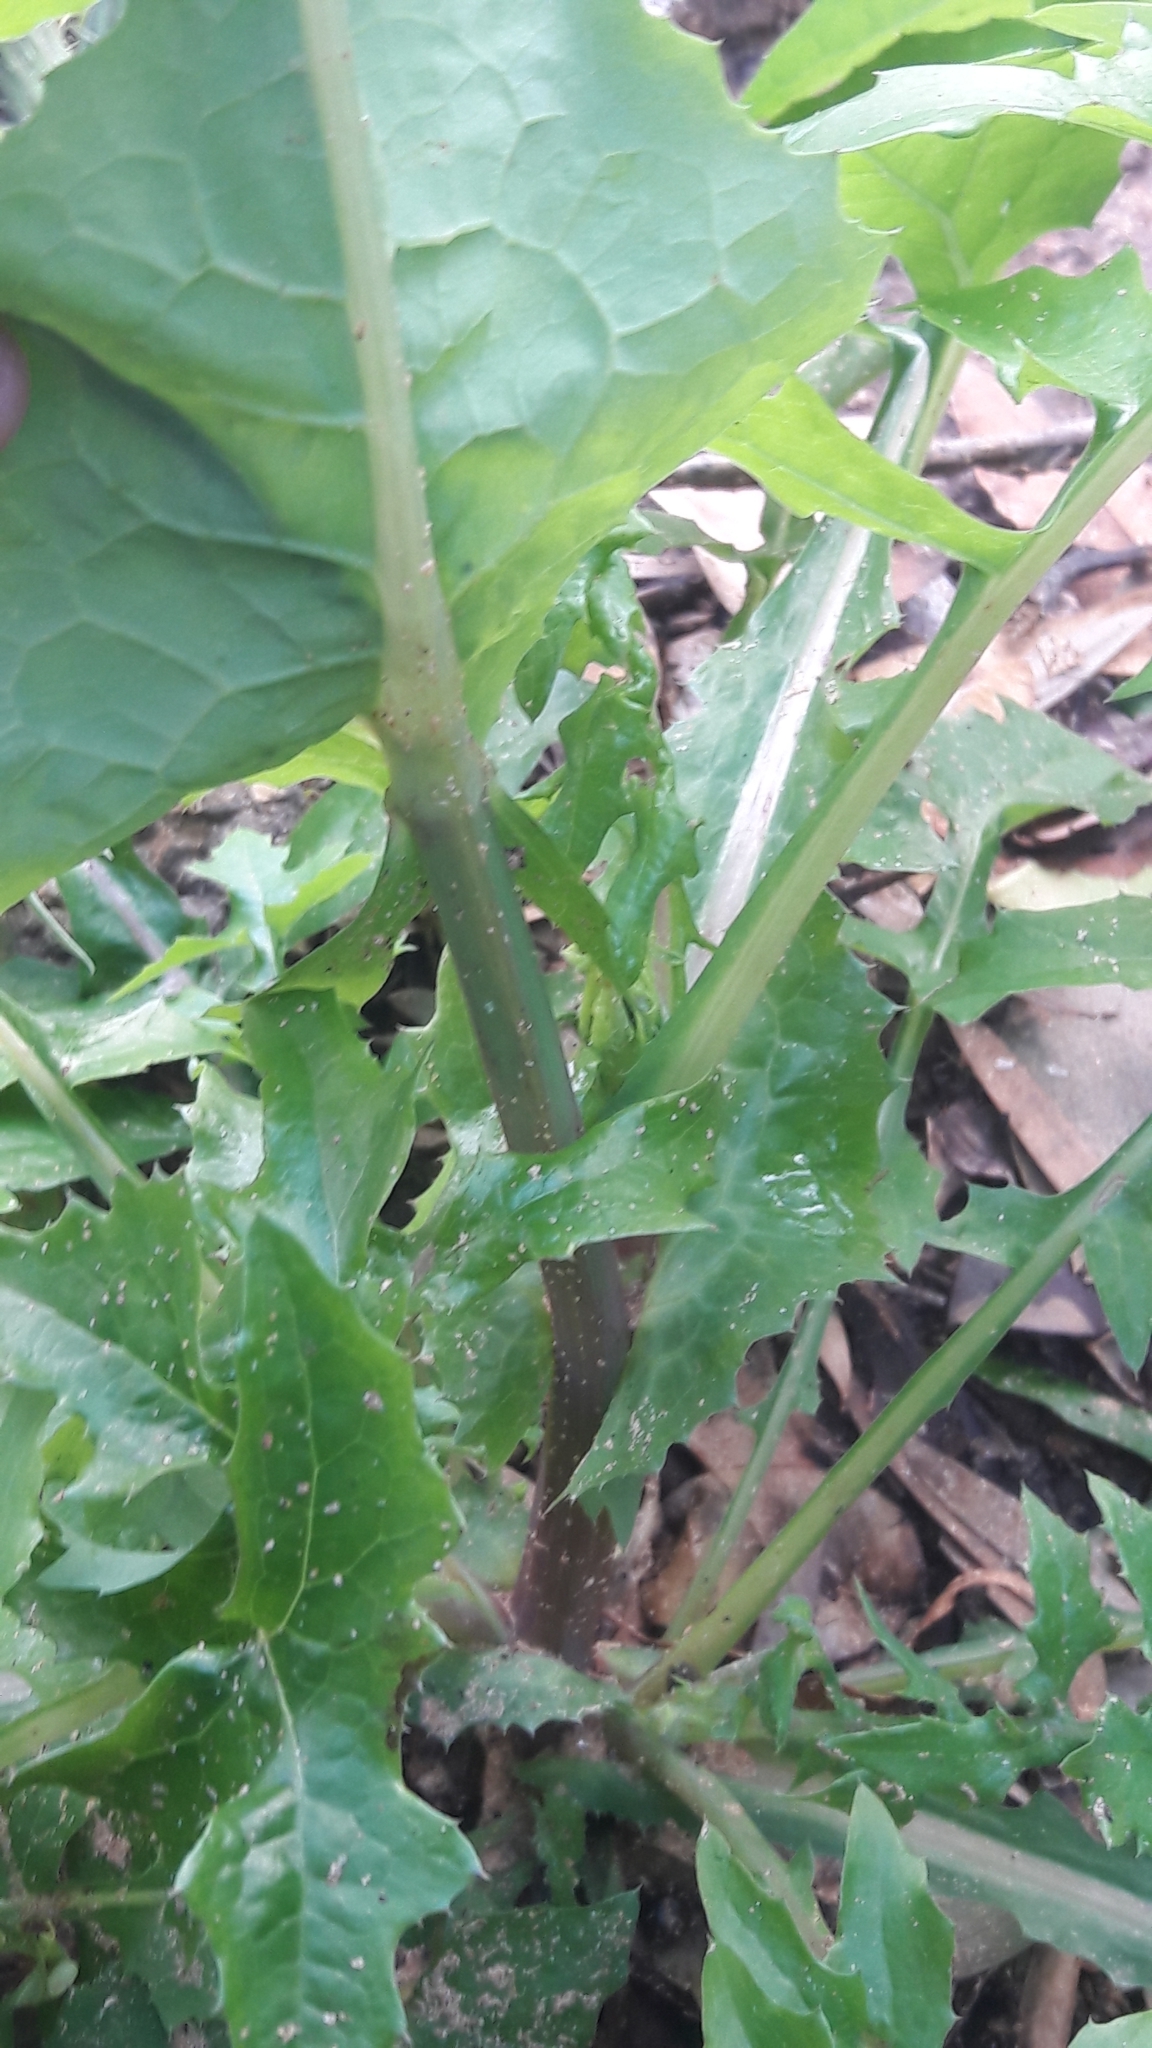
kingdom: Plantae
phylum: Tracheophyta
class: Magnoliopsida
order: Asterales
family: Asteraceae
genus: Sonchus
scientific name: Sonchus oleraceus
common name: Common sowthistle
